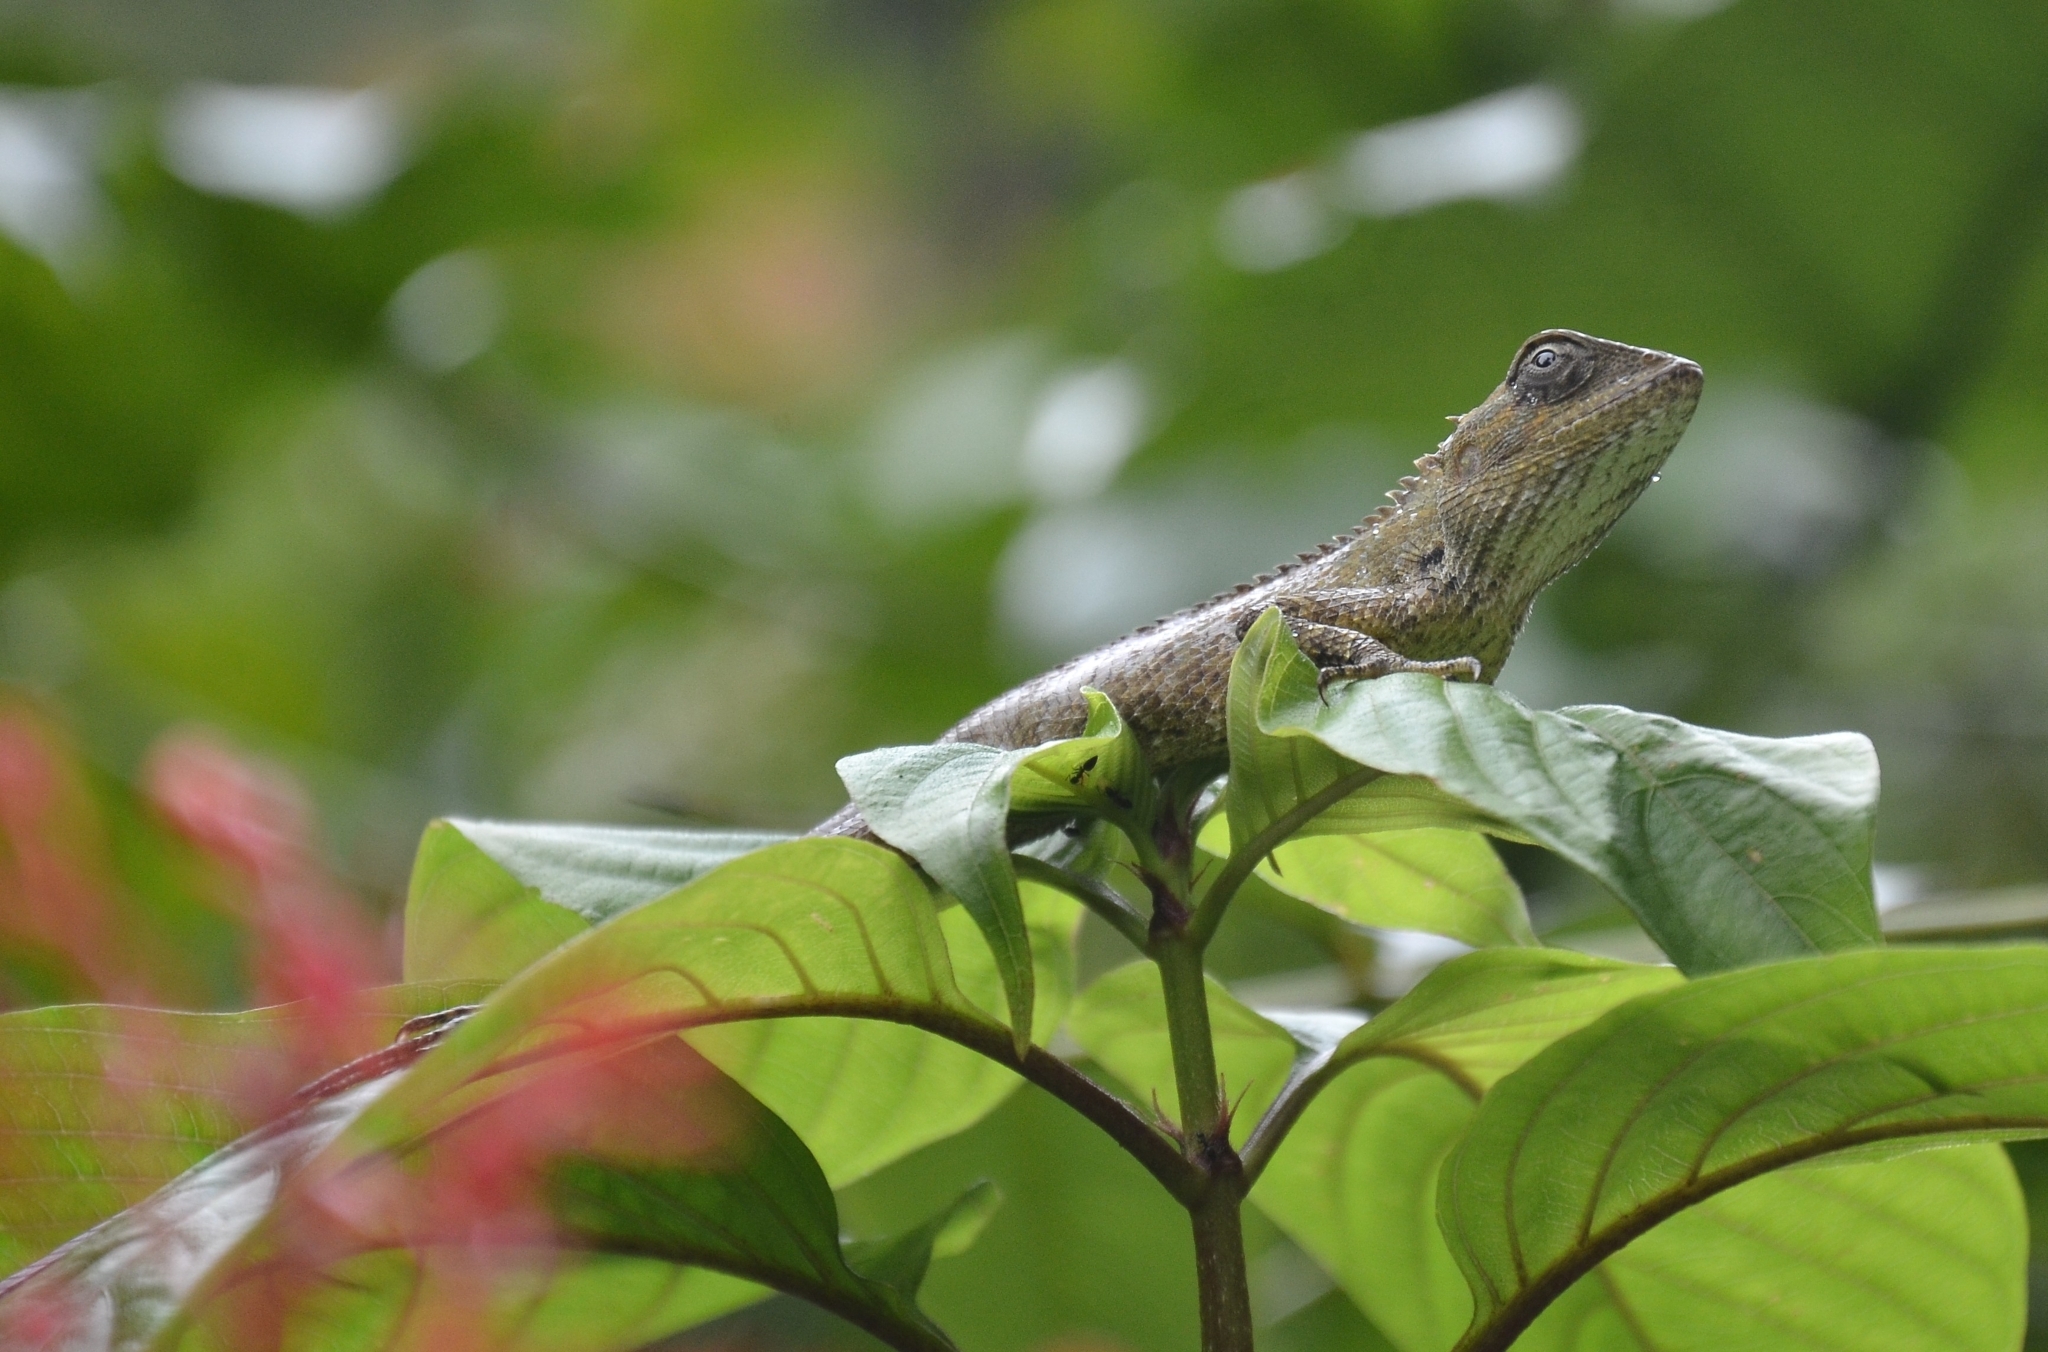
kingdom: Animalia
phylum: Chordata
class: Squamata
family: Agamidae
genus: Calotes
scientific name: Calotes versicolor
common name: Oriental garden lizard
